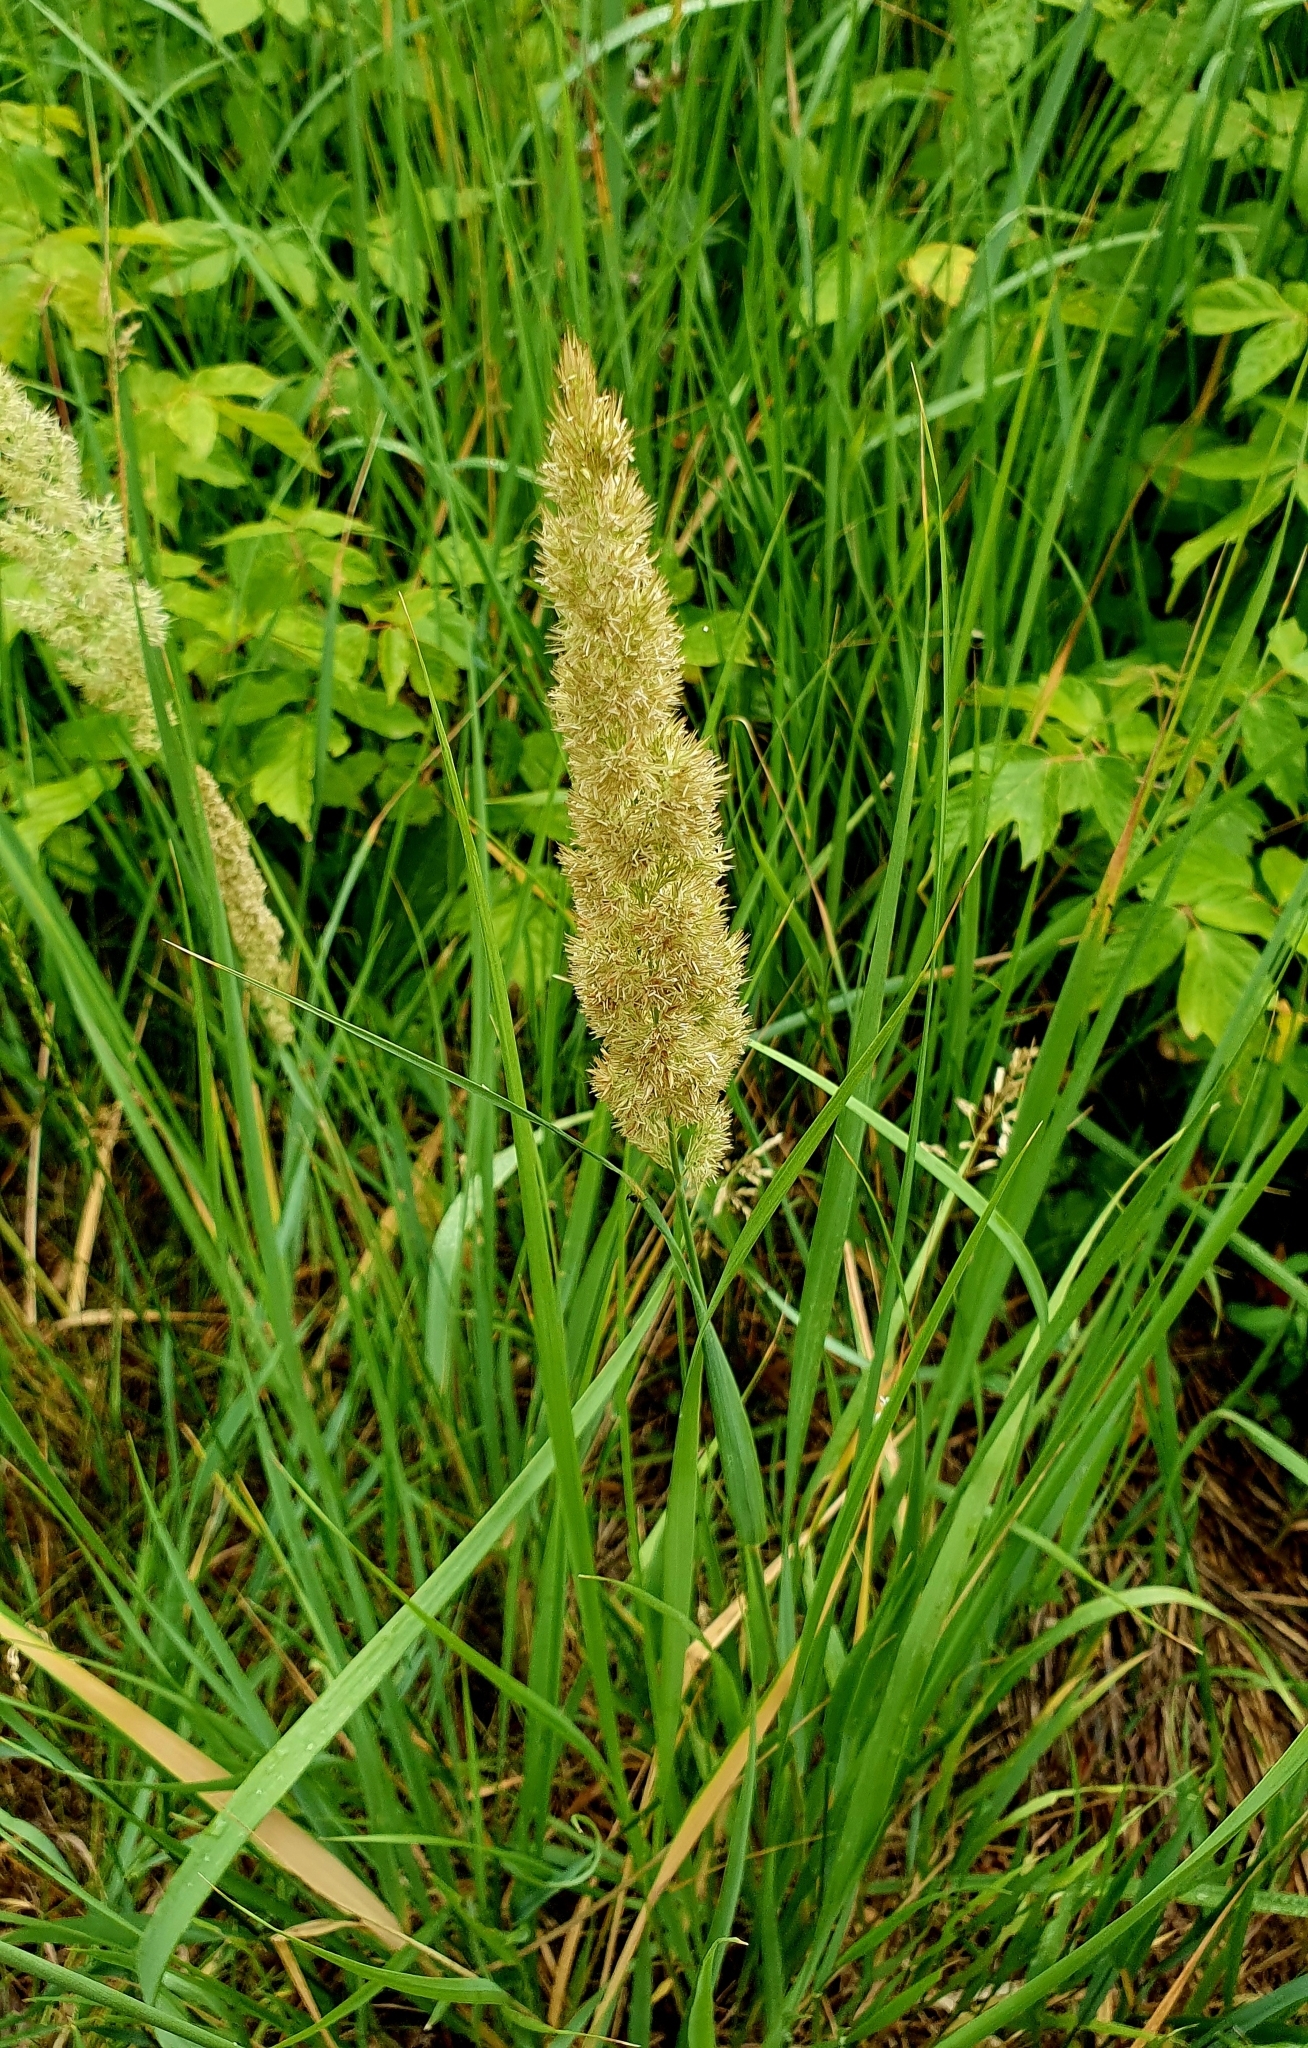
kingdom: Plantae
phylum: Tracheophyta
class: Liliopsida
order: Poales
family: Poaceae
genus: Calamagrostis
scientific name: Calamagrostis epigejos
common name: Wood small-reed
